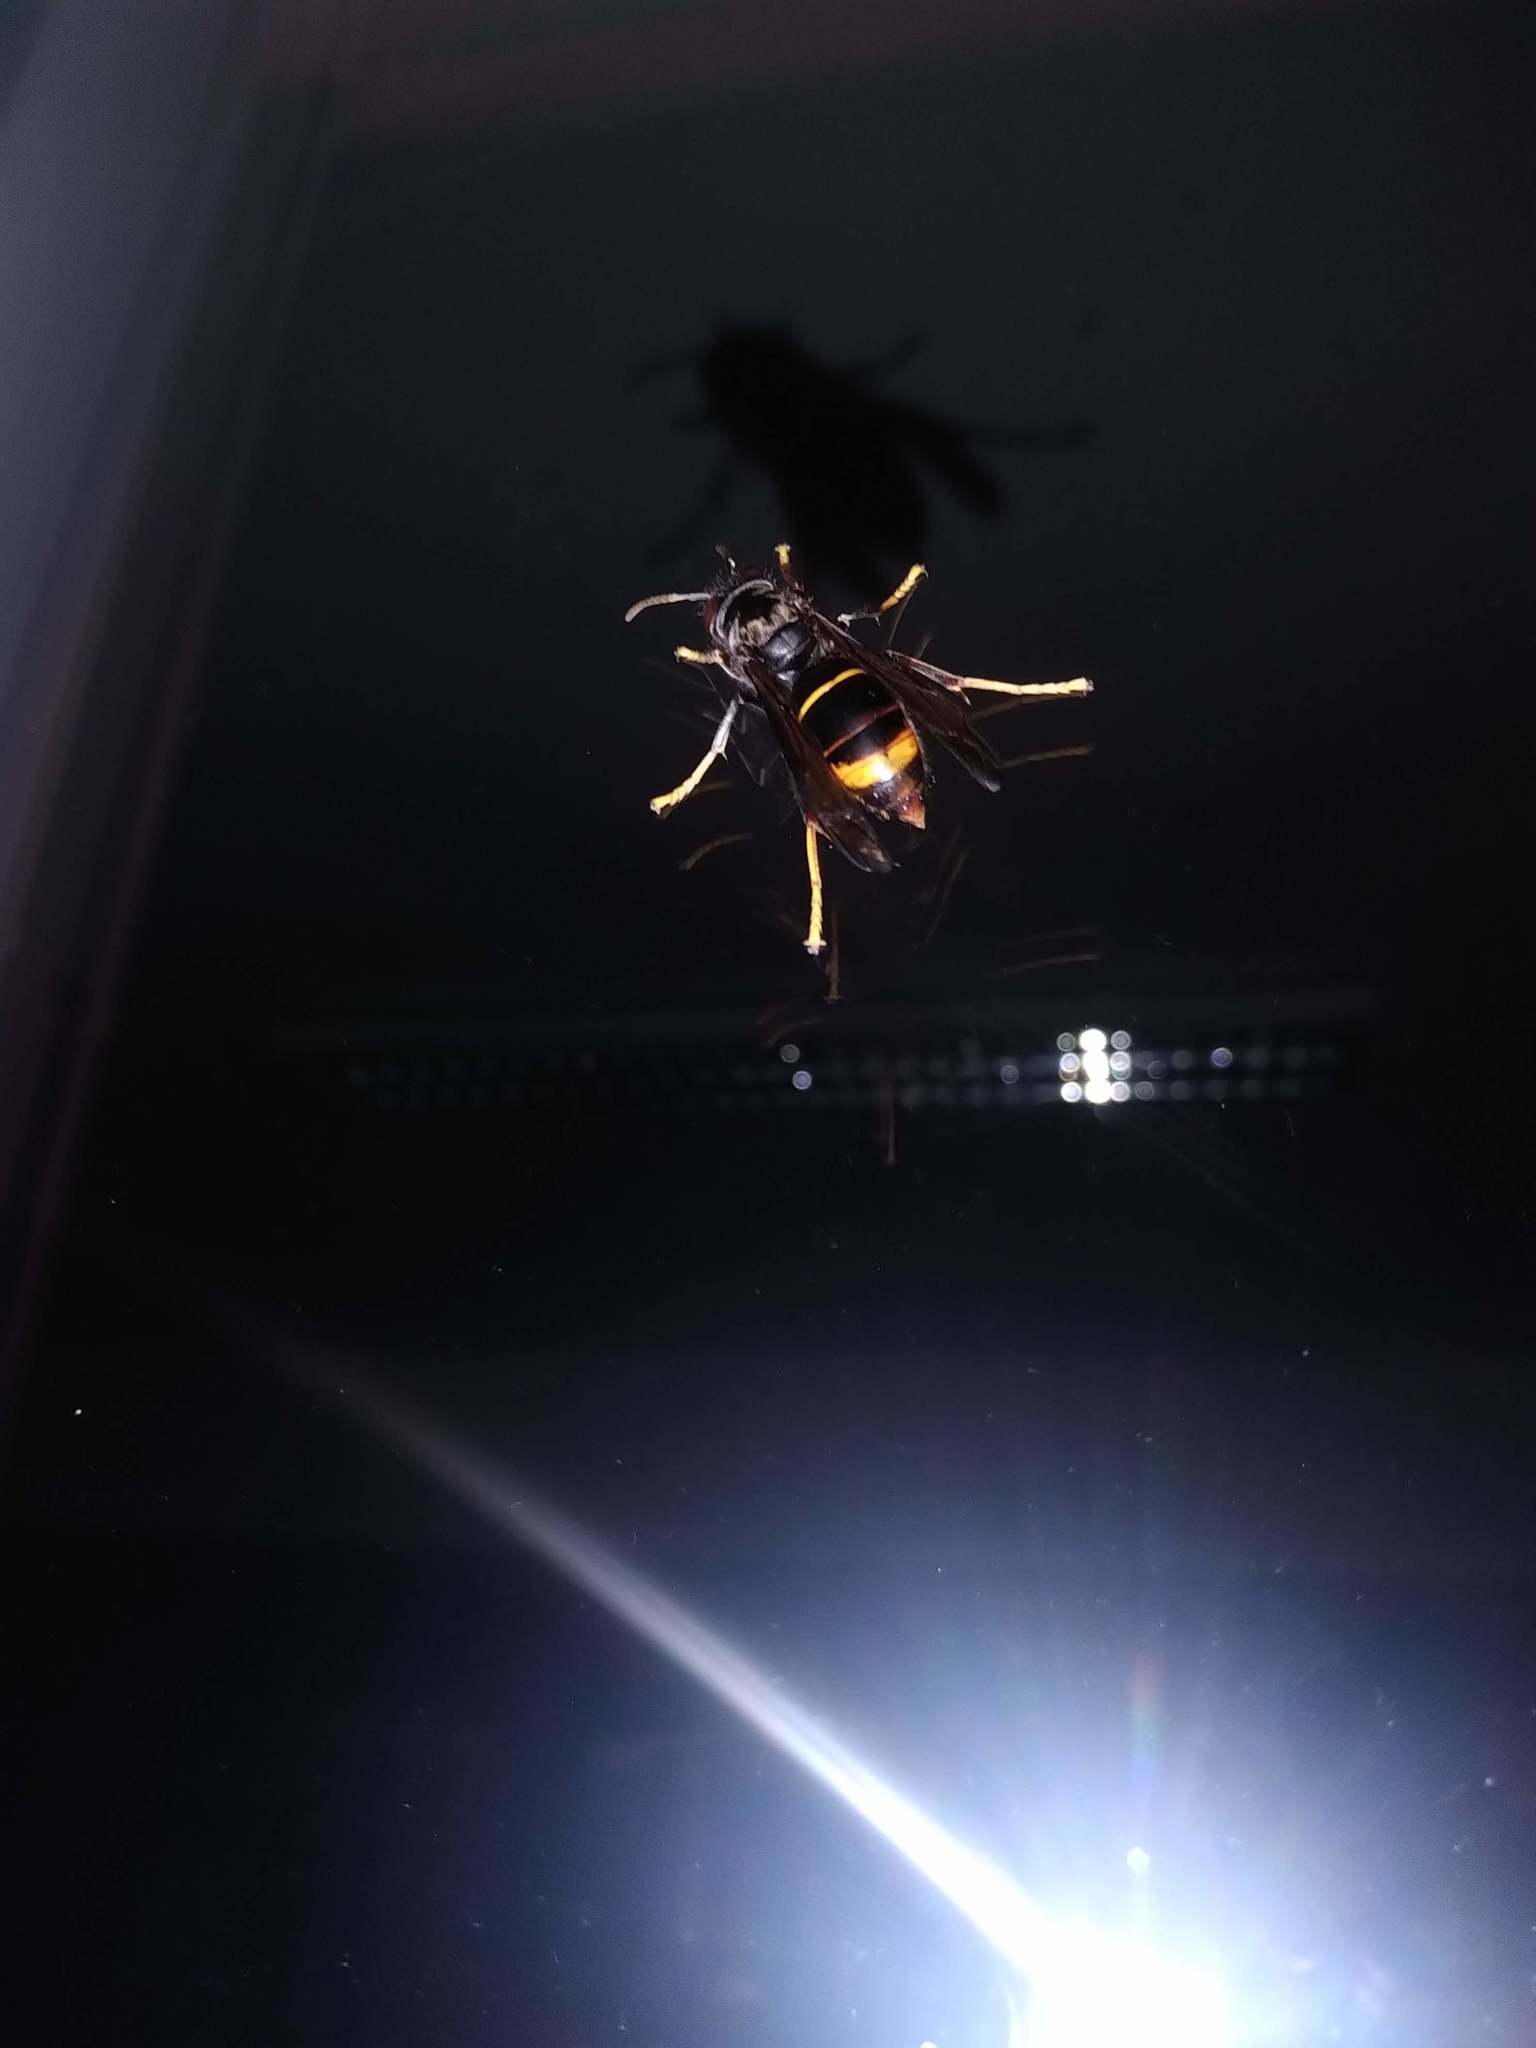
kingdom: Animalia
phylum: Arthropoda
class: Insecta
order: Hymenoptera
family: Vespidae
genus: Vespa
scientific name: Vespa velutina
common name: Asian hornet
